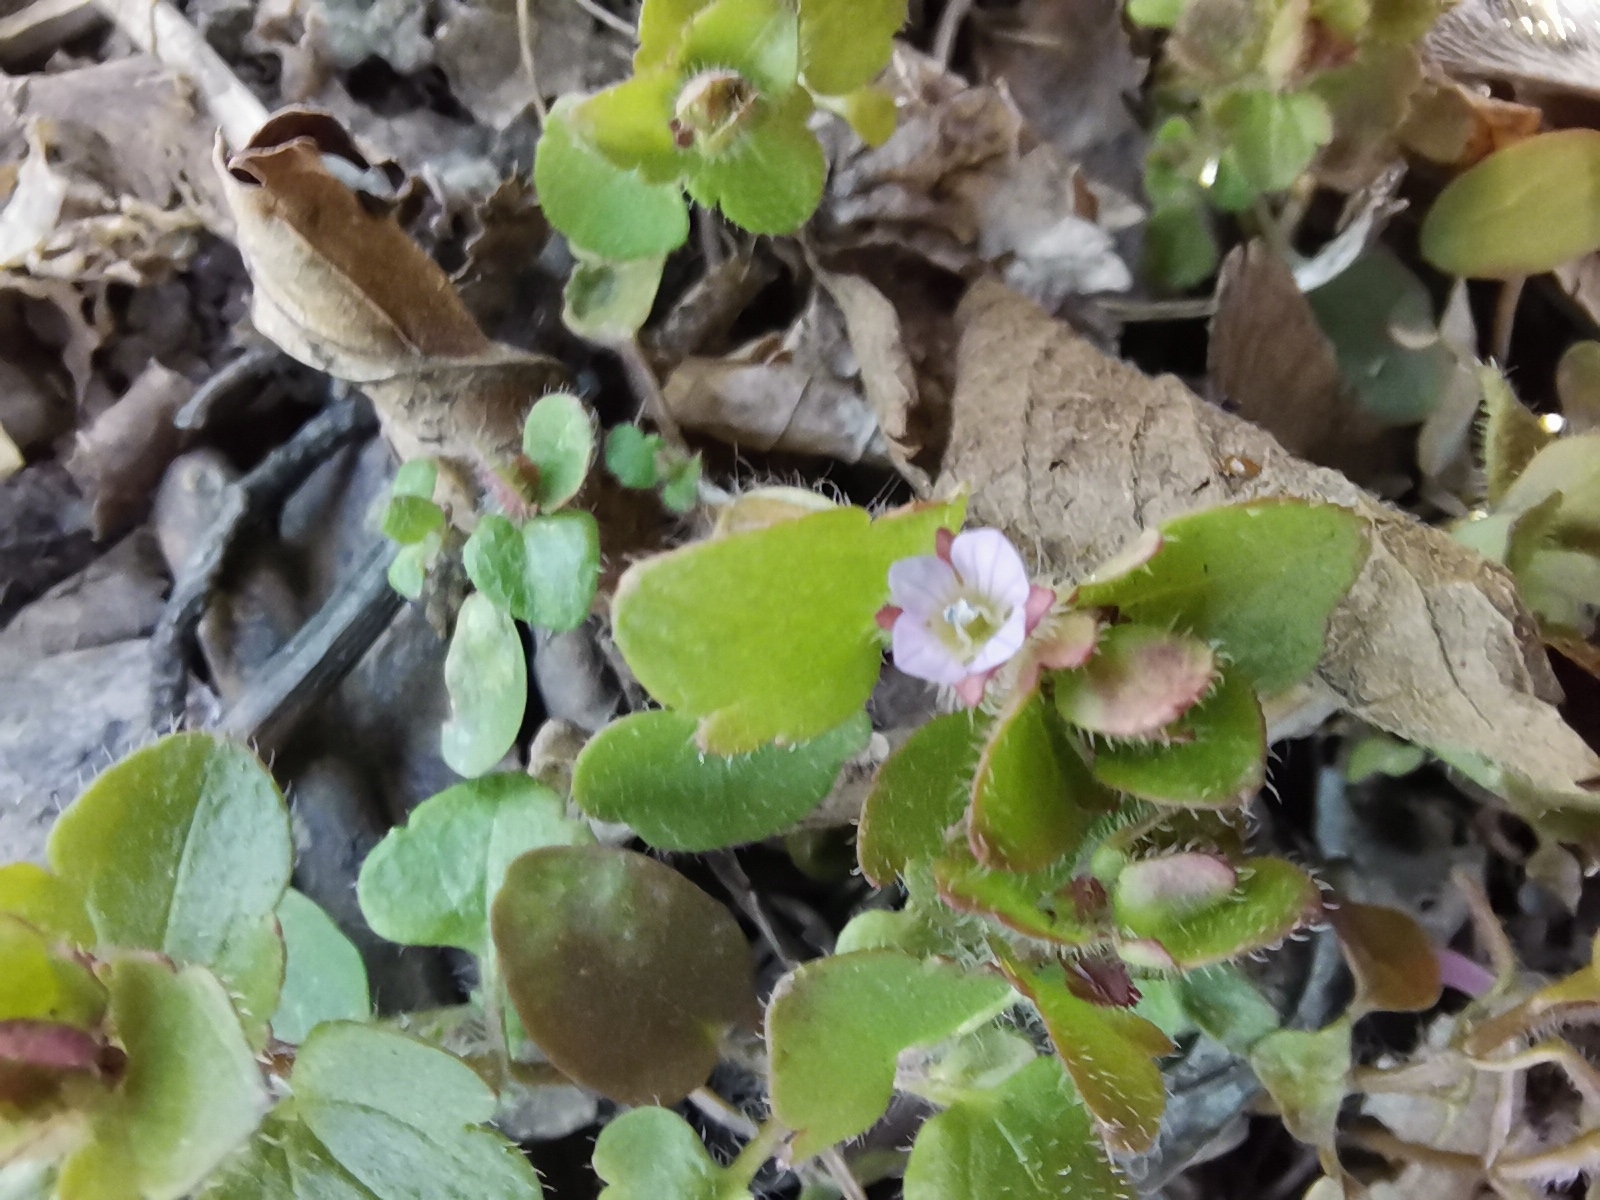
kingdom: Plantae
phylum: Tracheophyta
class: Magnoliopsida
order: Lamiales
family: Plantaginaceae
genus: Veronica
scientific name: Veronica sublobata
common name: False ivy-leaved speedwell
